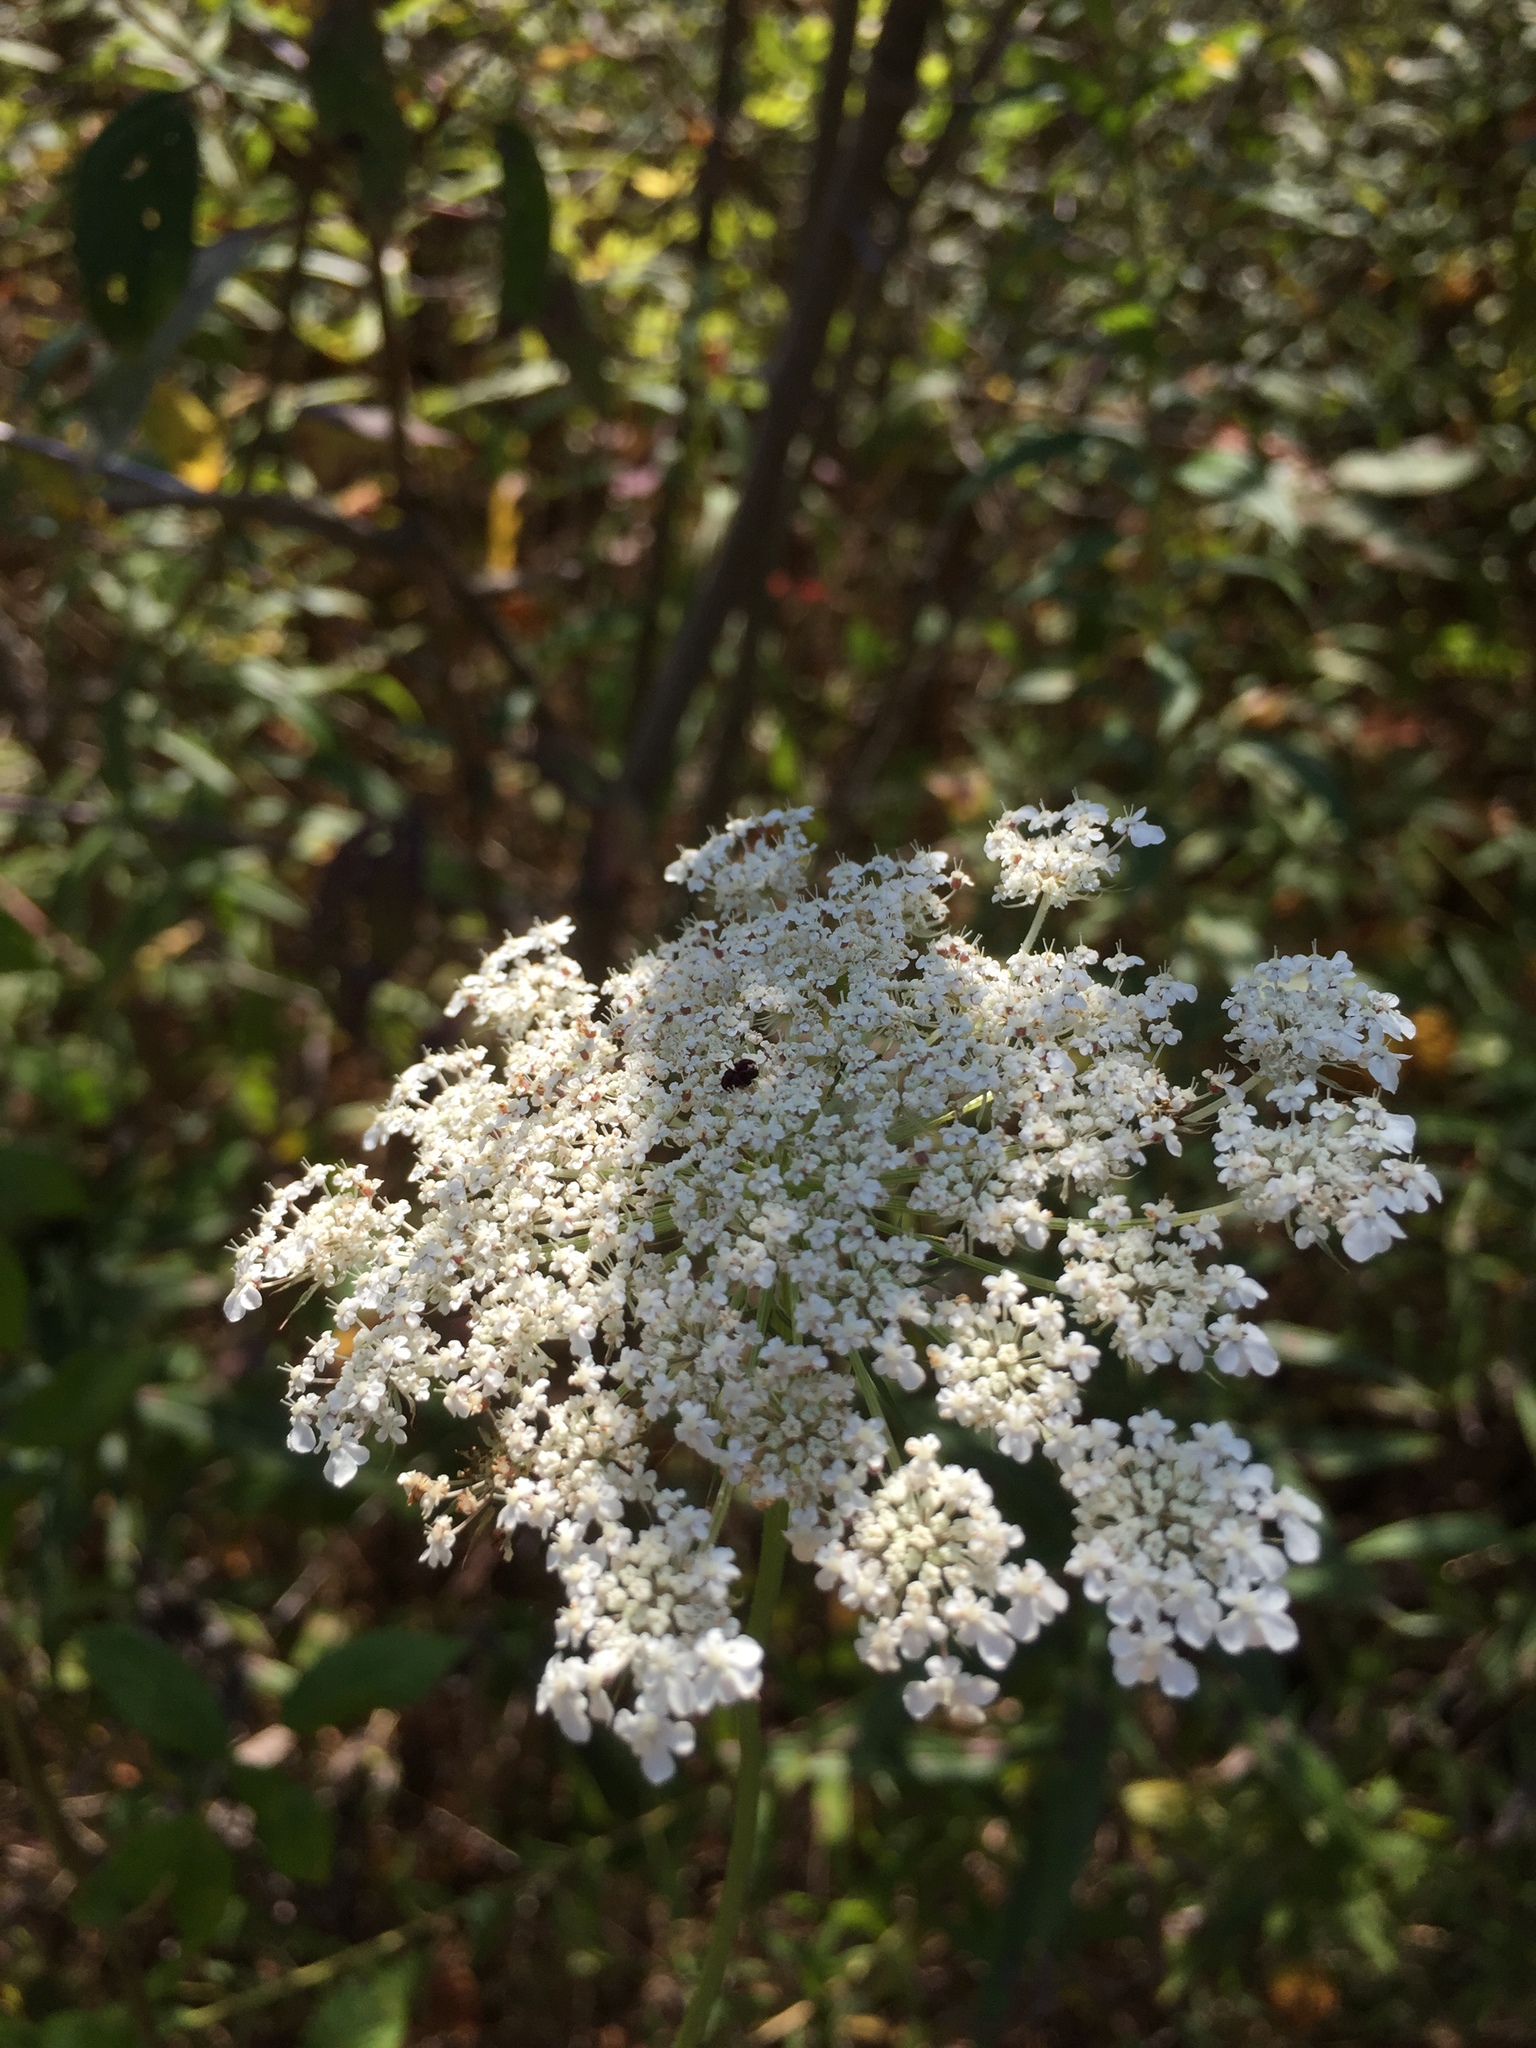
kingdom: Plantae
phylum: Tracheophyta
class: Magnoliopsida
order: Apiales
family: Apiaceae
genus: Daucus
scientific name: Daucus carota
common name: Wild carrot
